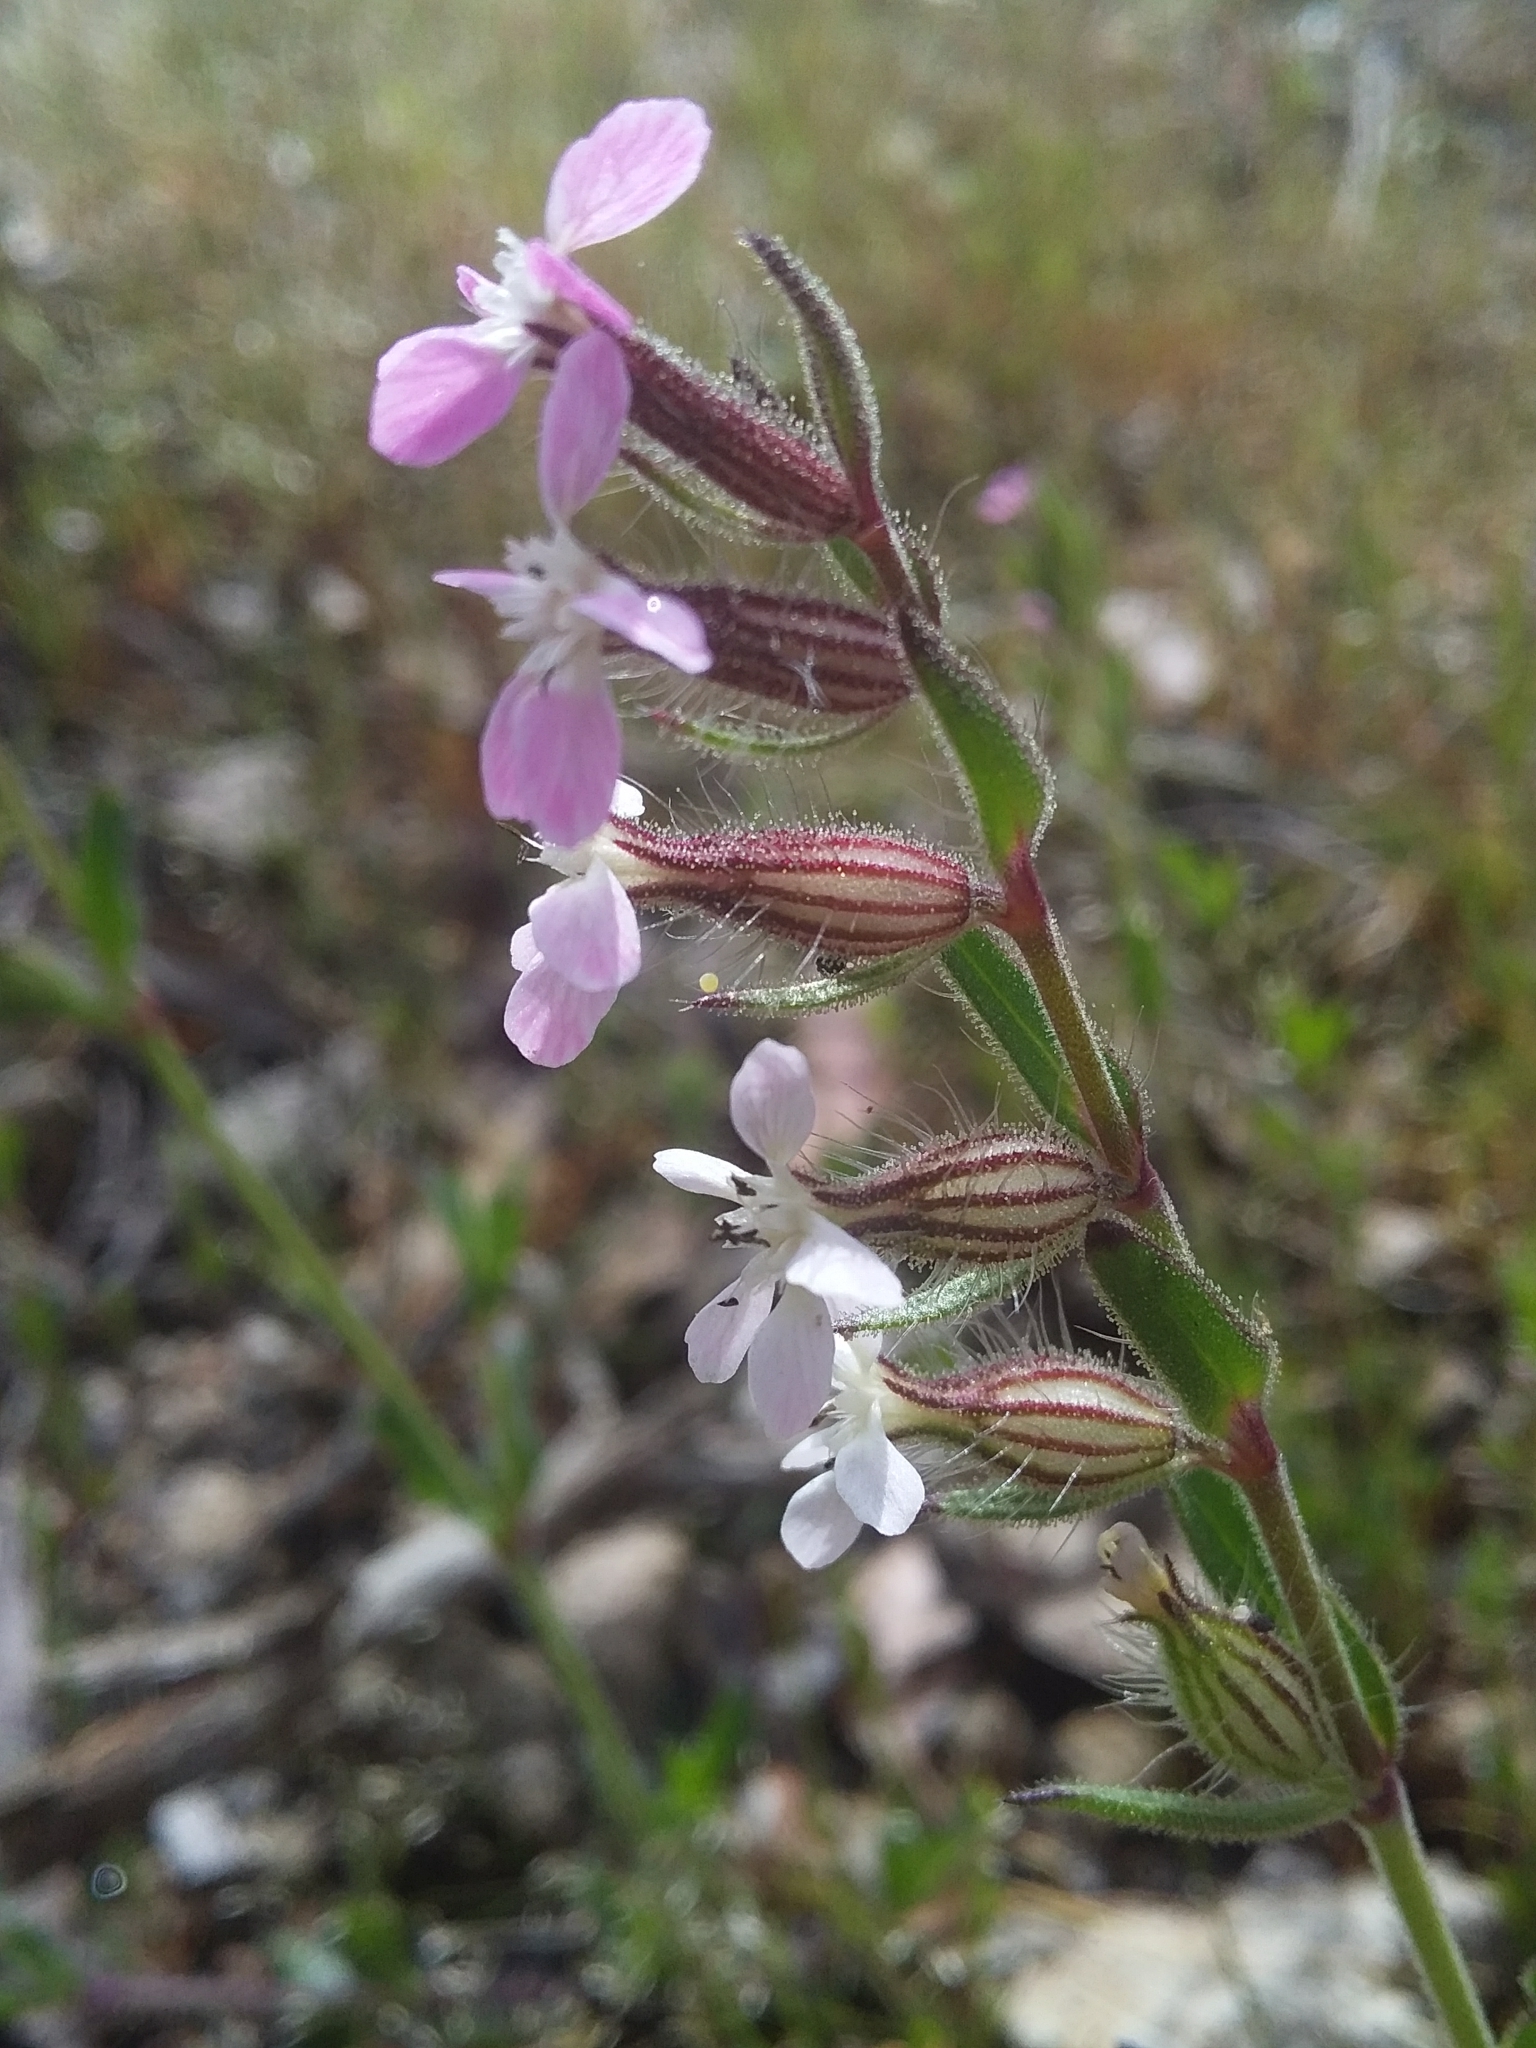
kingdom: Plantae
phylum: Tracheophyta
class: Magnoliopsida
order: Caryophyllales
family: Caryophyllaceae
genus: Silene
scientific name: Silene gallica
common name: Small-flowered catchfly
